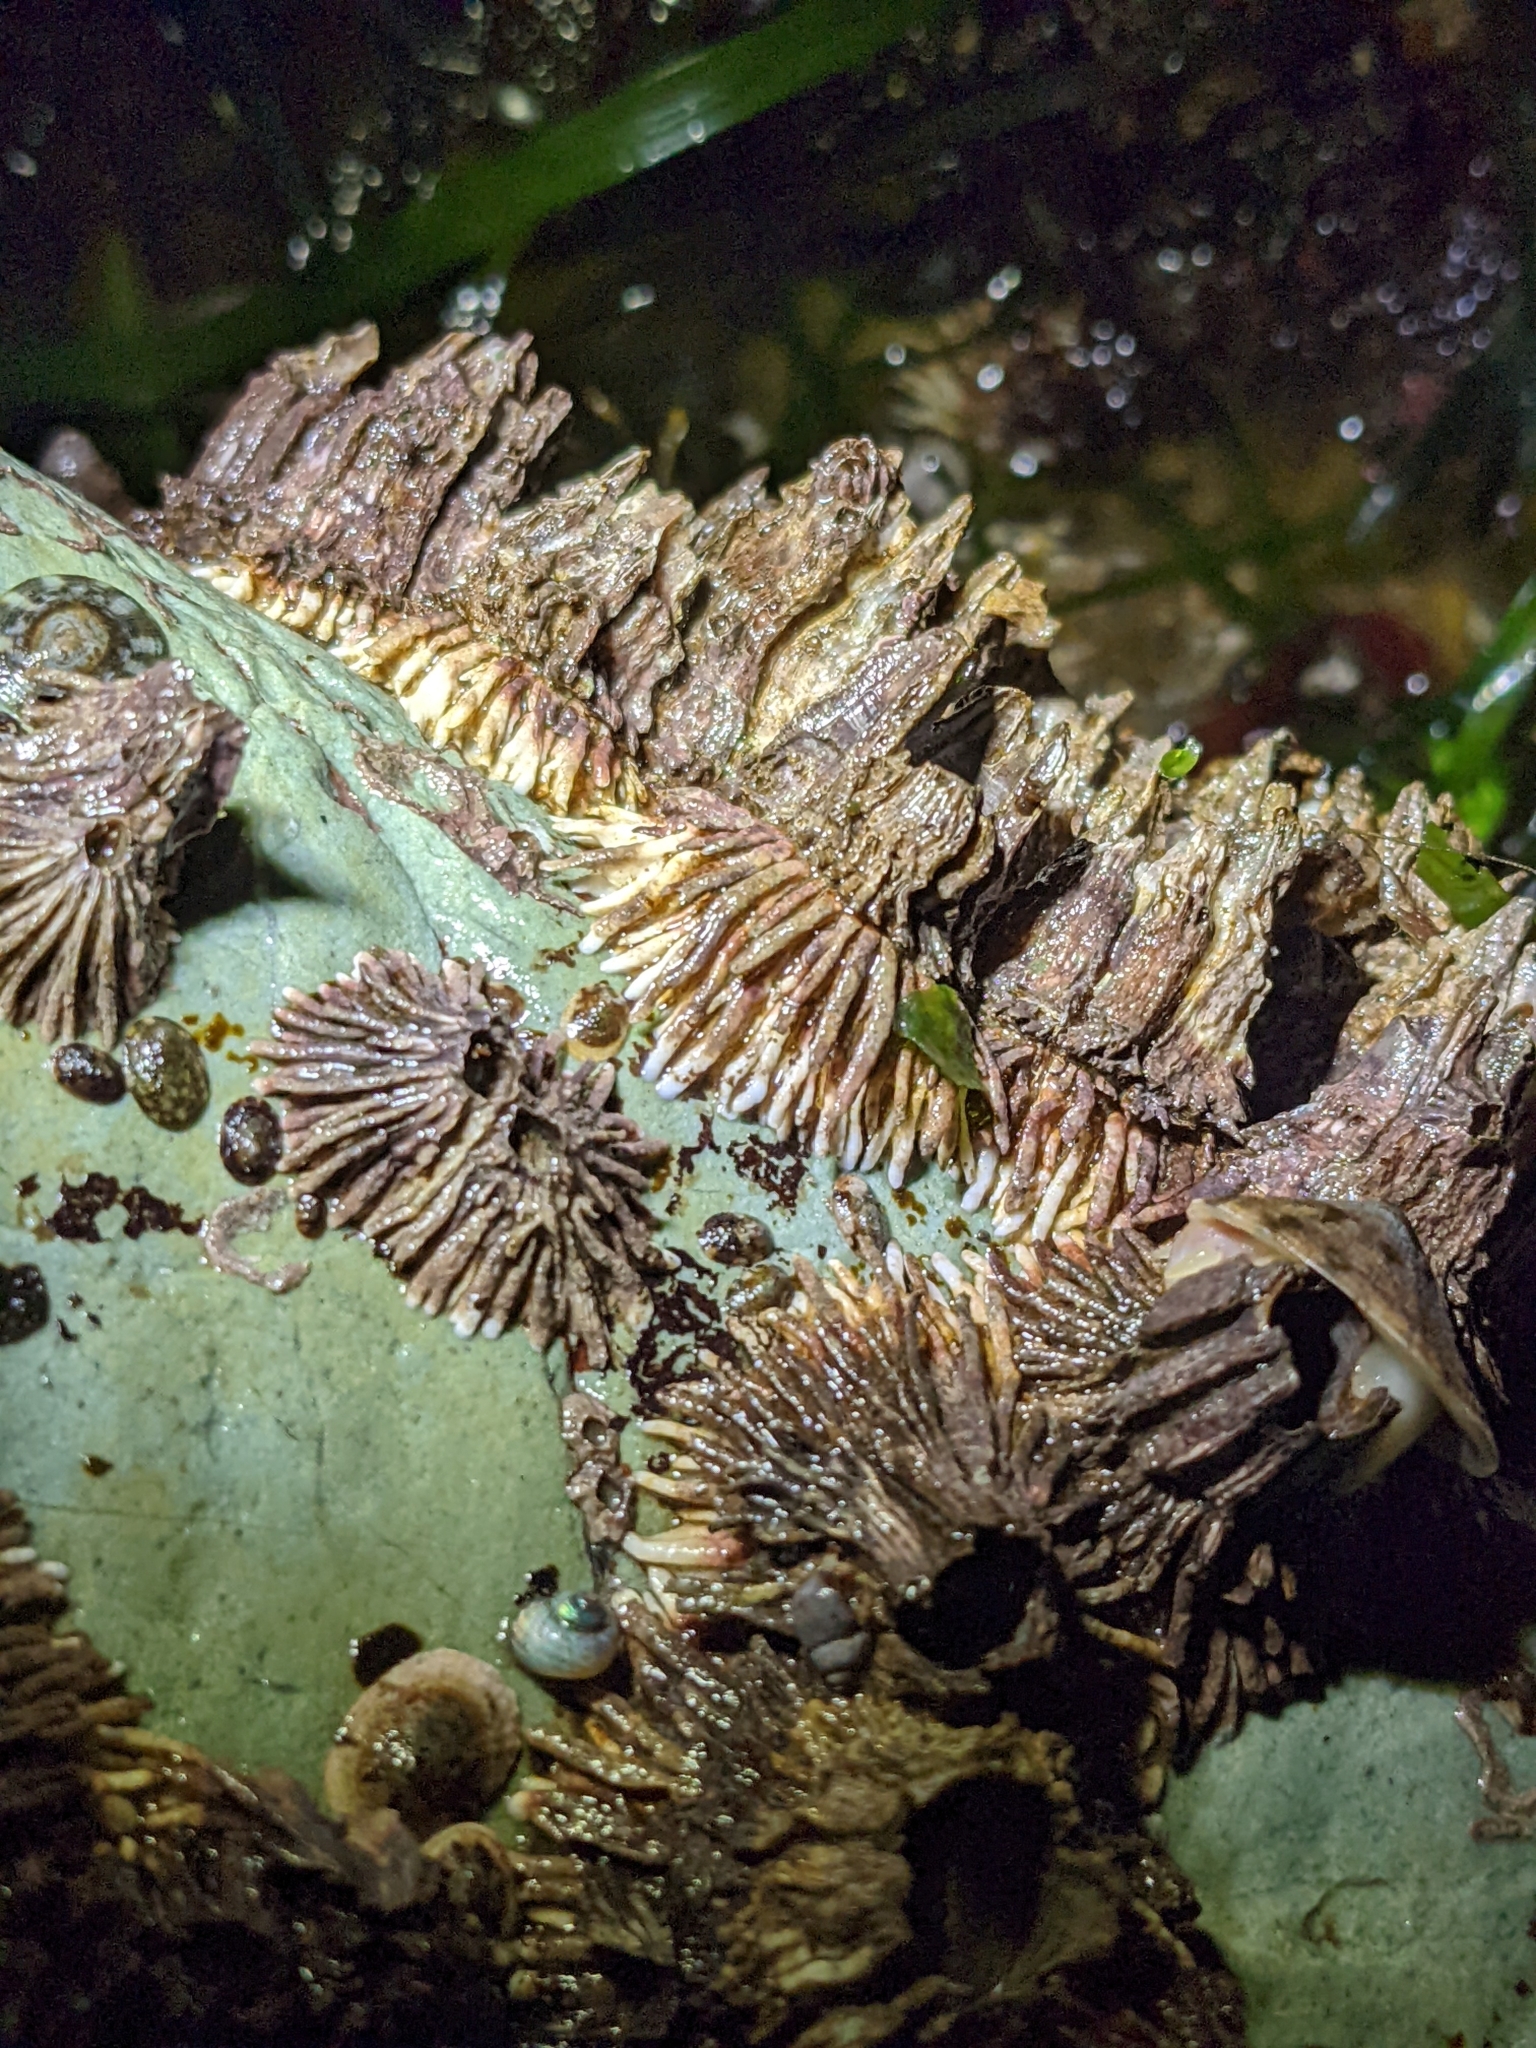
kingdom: Animalia
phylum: Arthropoda
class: Maxillopoda
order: Sessilia
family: Archaeobalanidae
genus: Semibalanus
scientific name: Semibalanus cariosus
